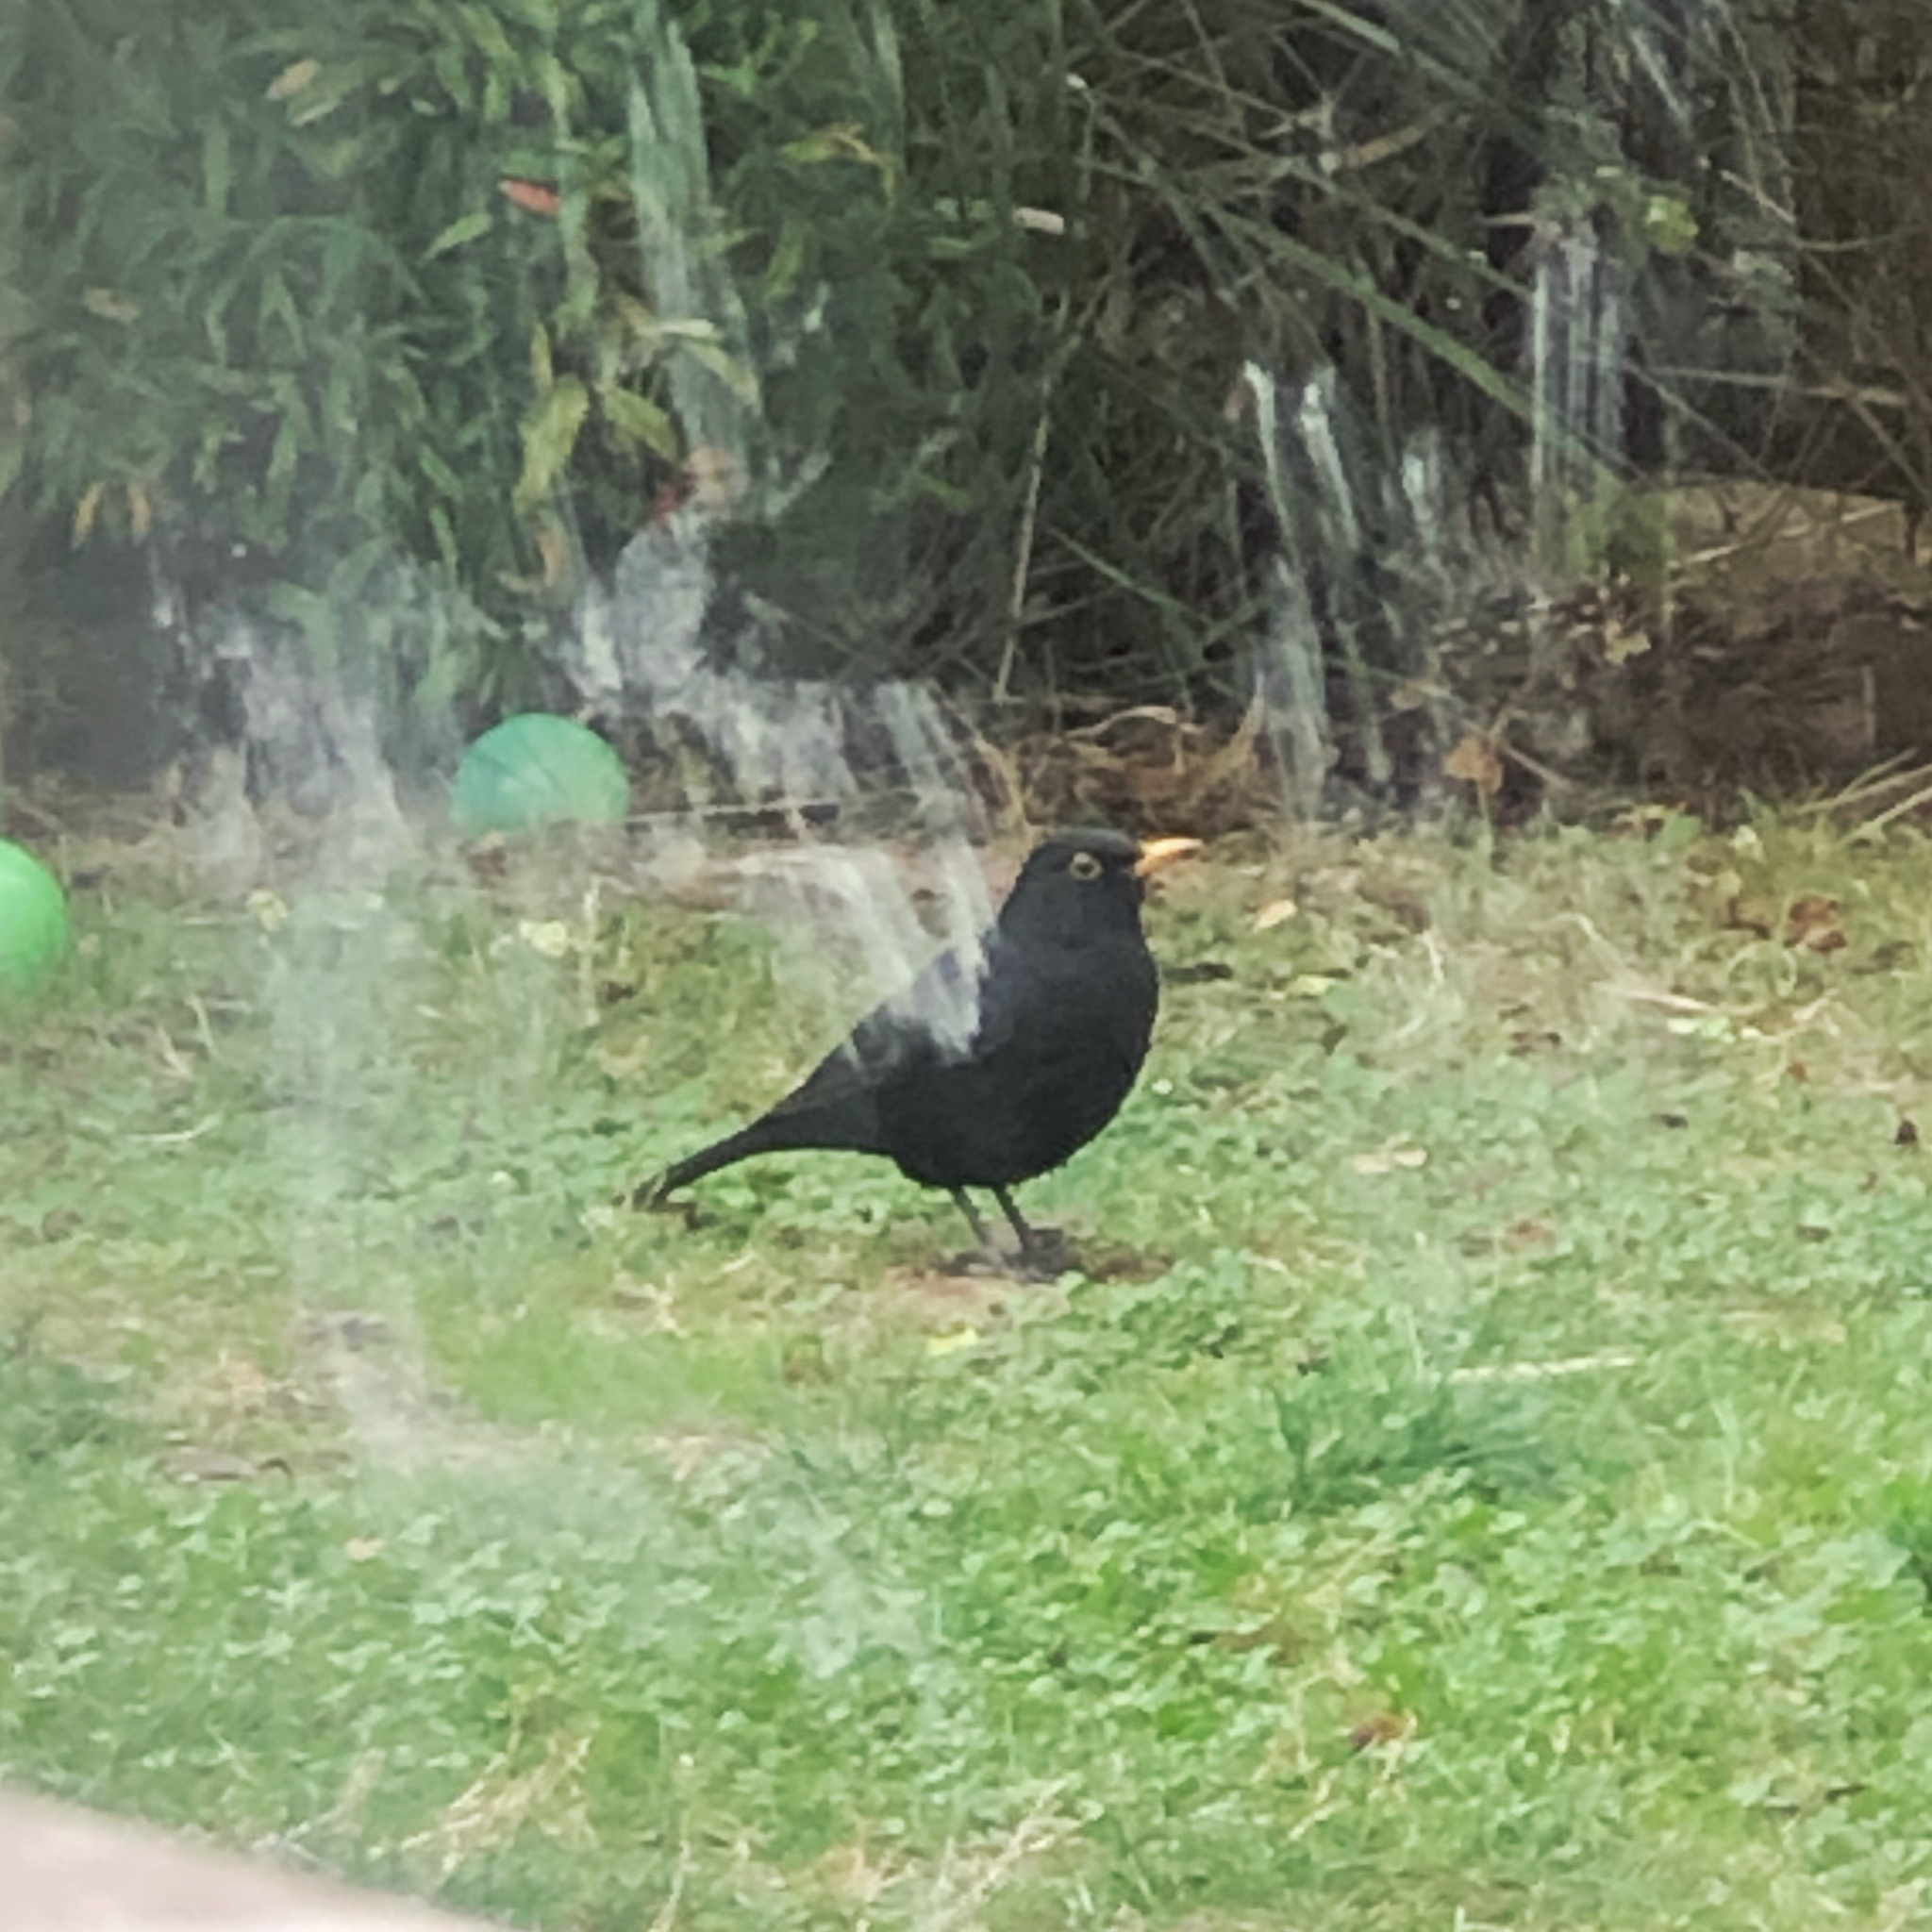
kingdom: Animalia
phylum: Chordata
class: Aves
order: Passeriformes
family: Turdidae
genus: Turdus
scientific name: Turdus merula
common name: Common blackbird
